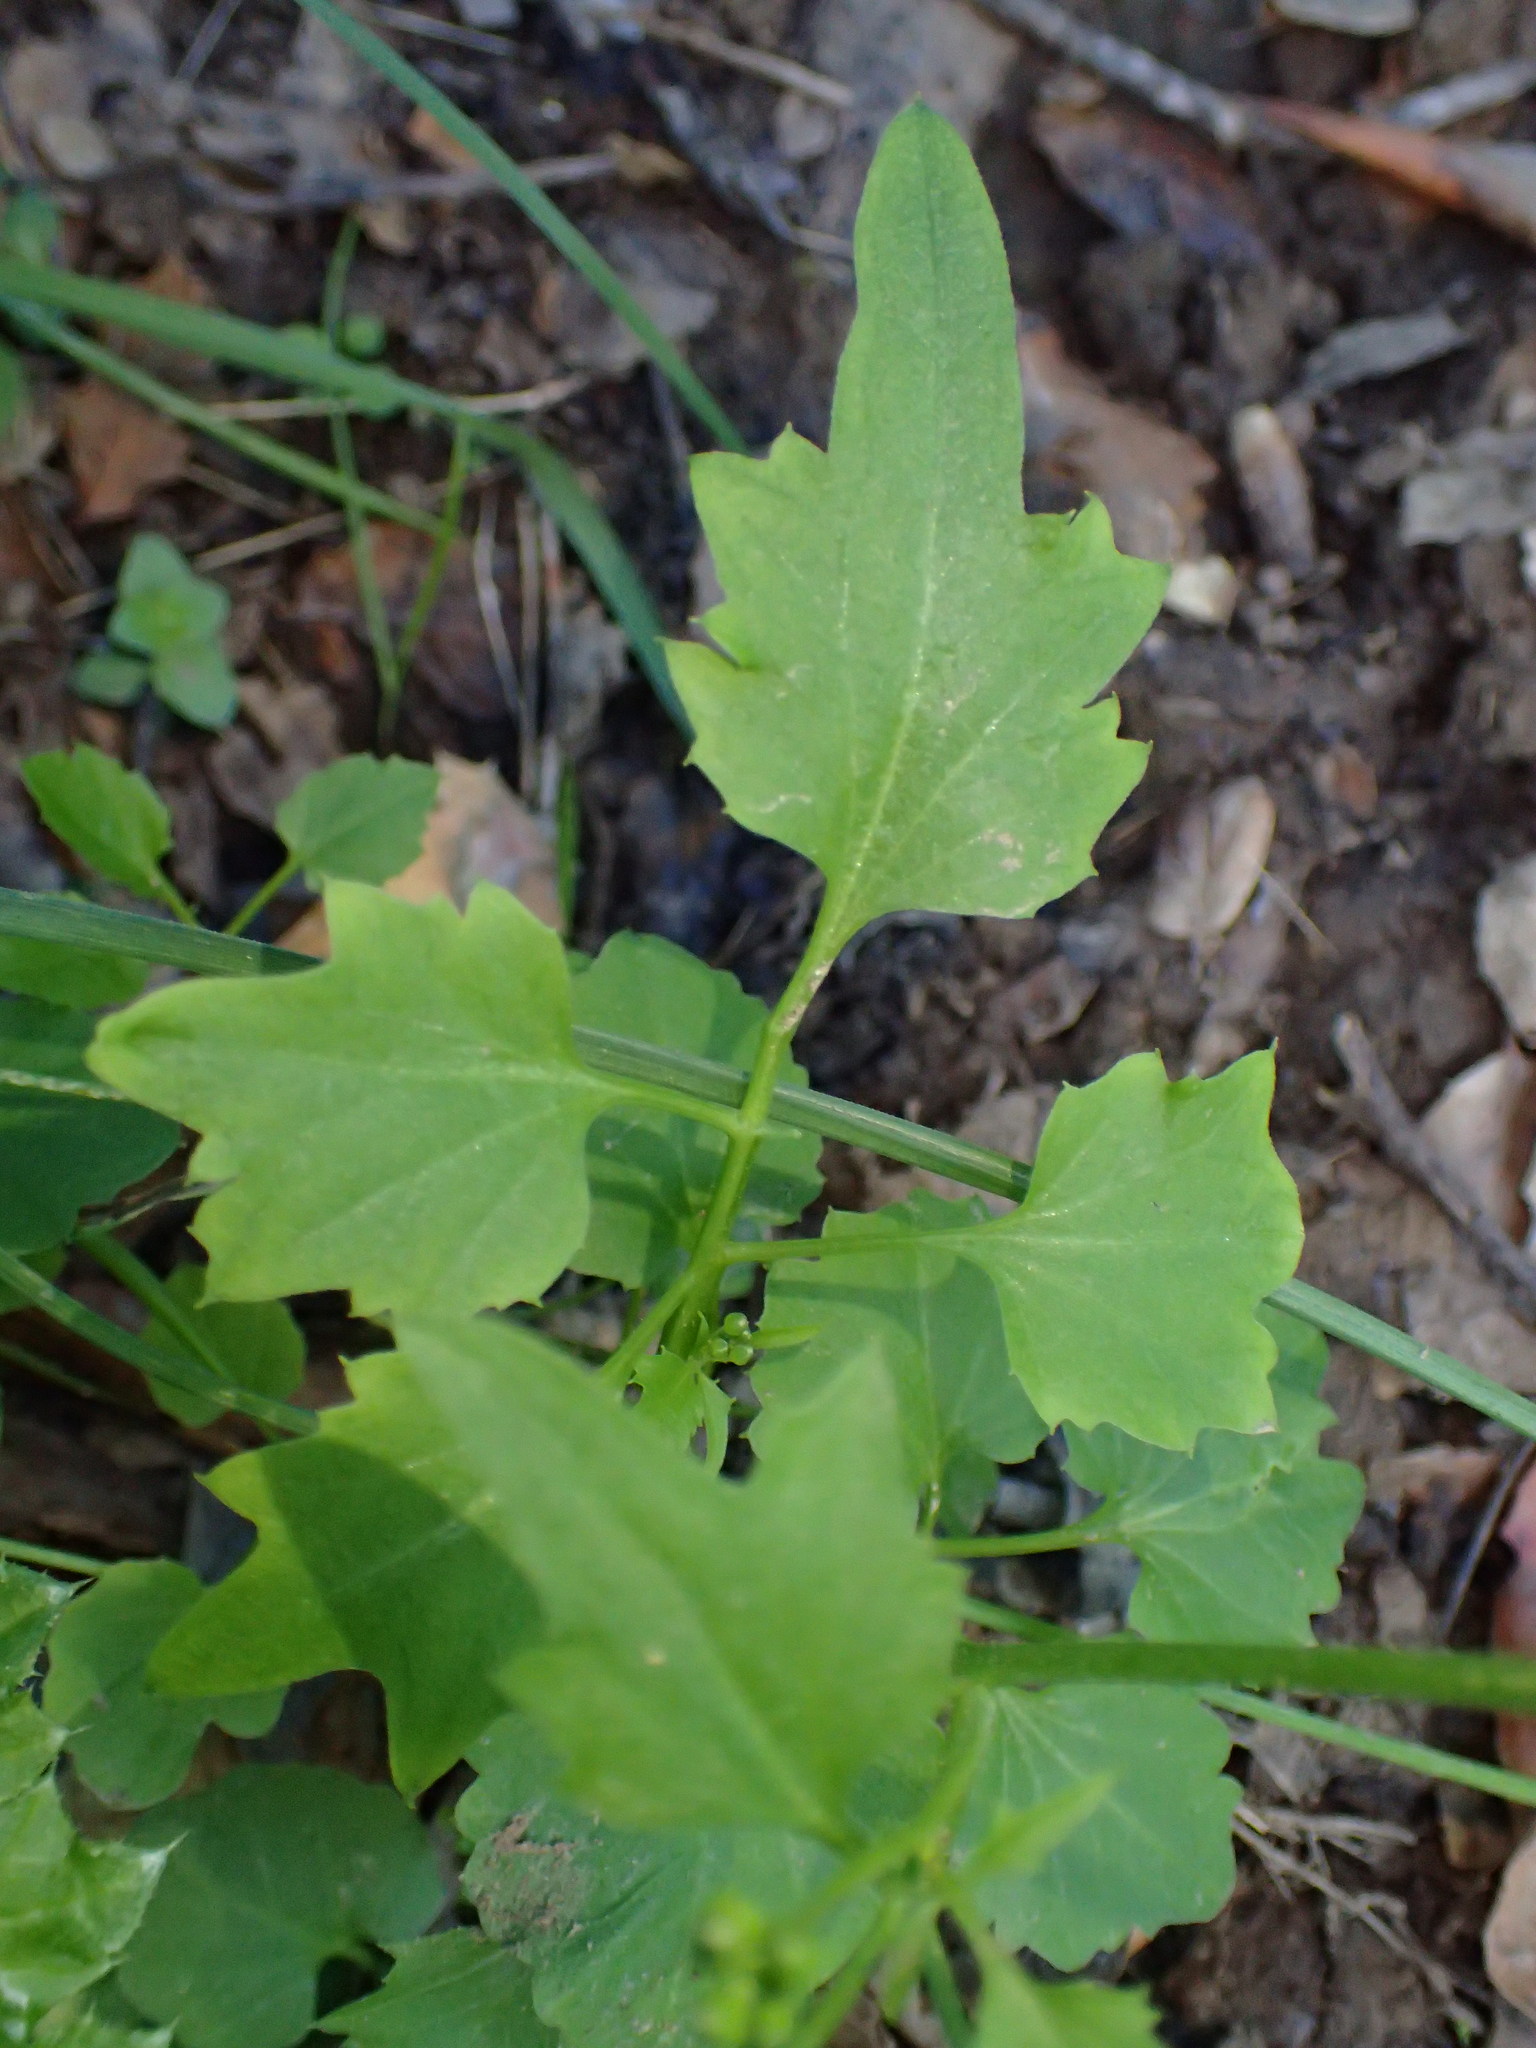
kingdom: Plantae
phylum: Tracheophyta
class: Magnoliopsida
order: Brassicales
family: Brassicaceae
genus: Cardamine
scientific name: Cardamine californica
